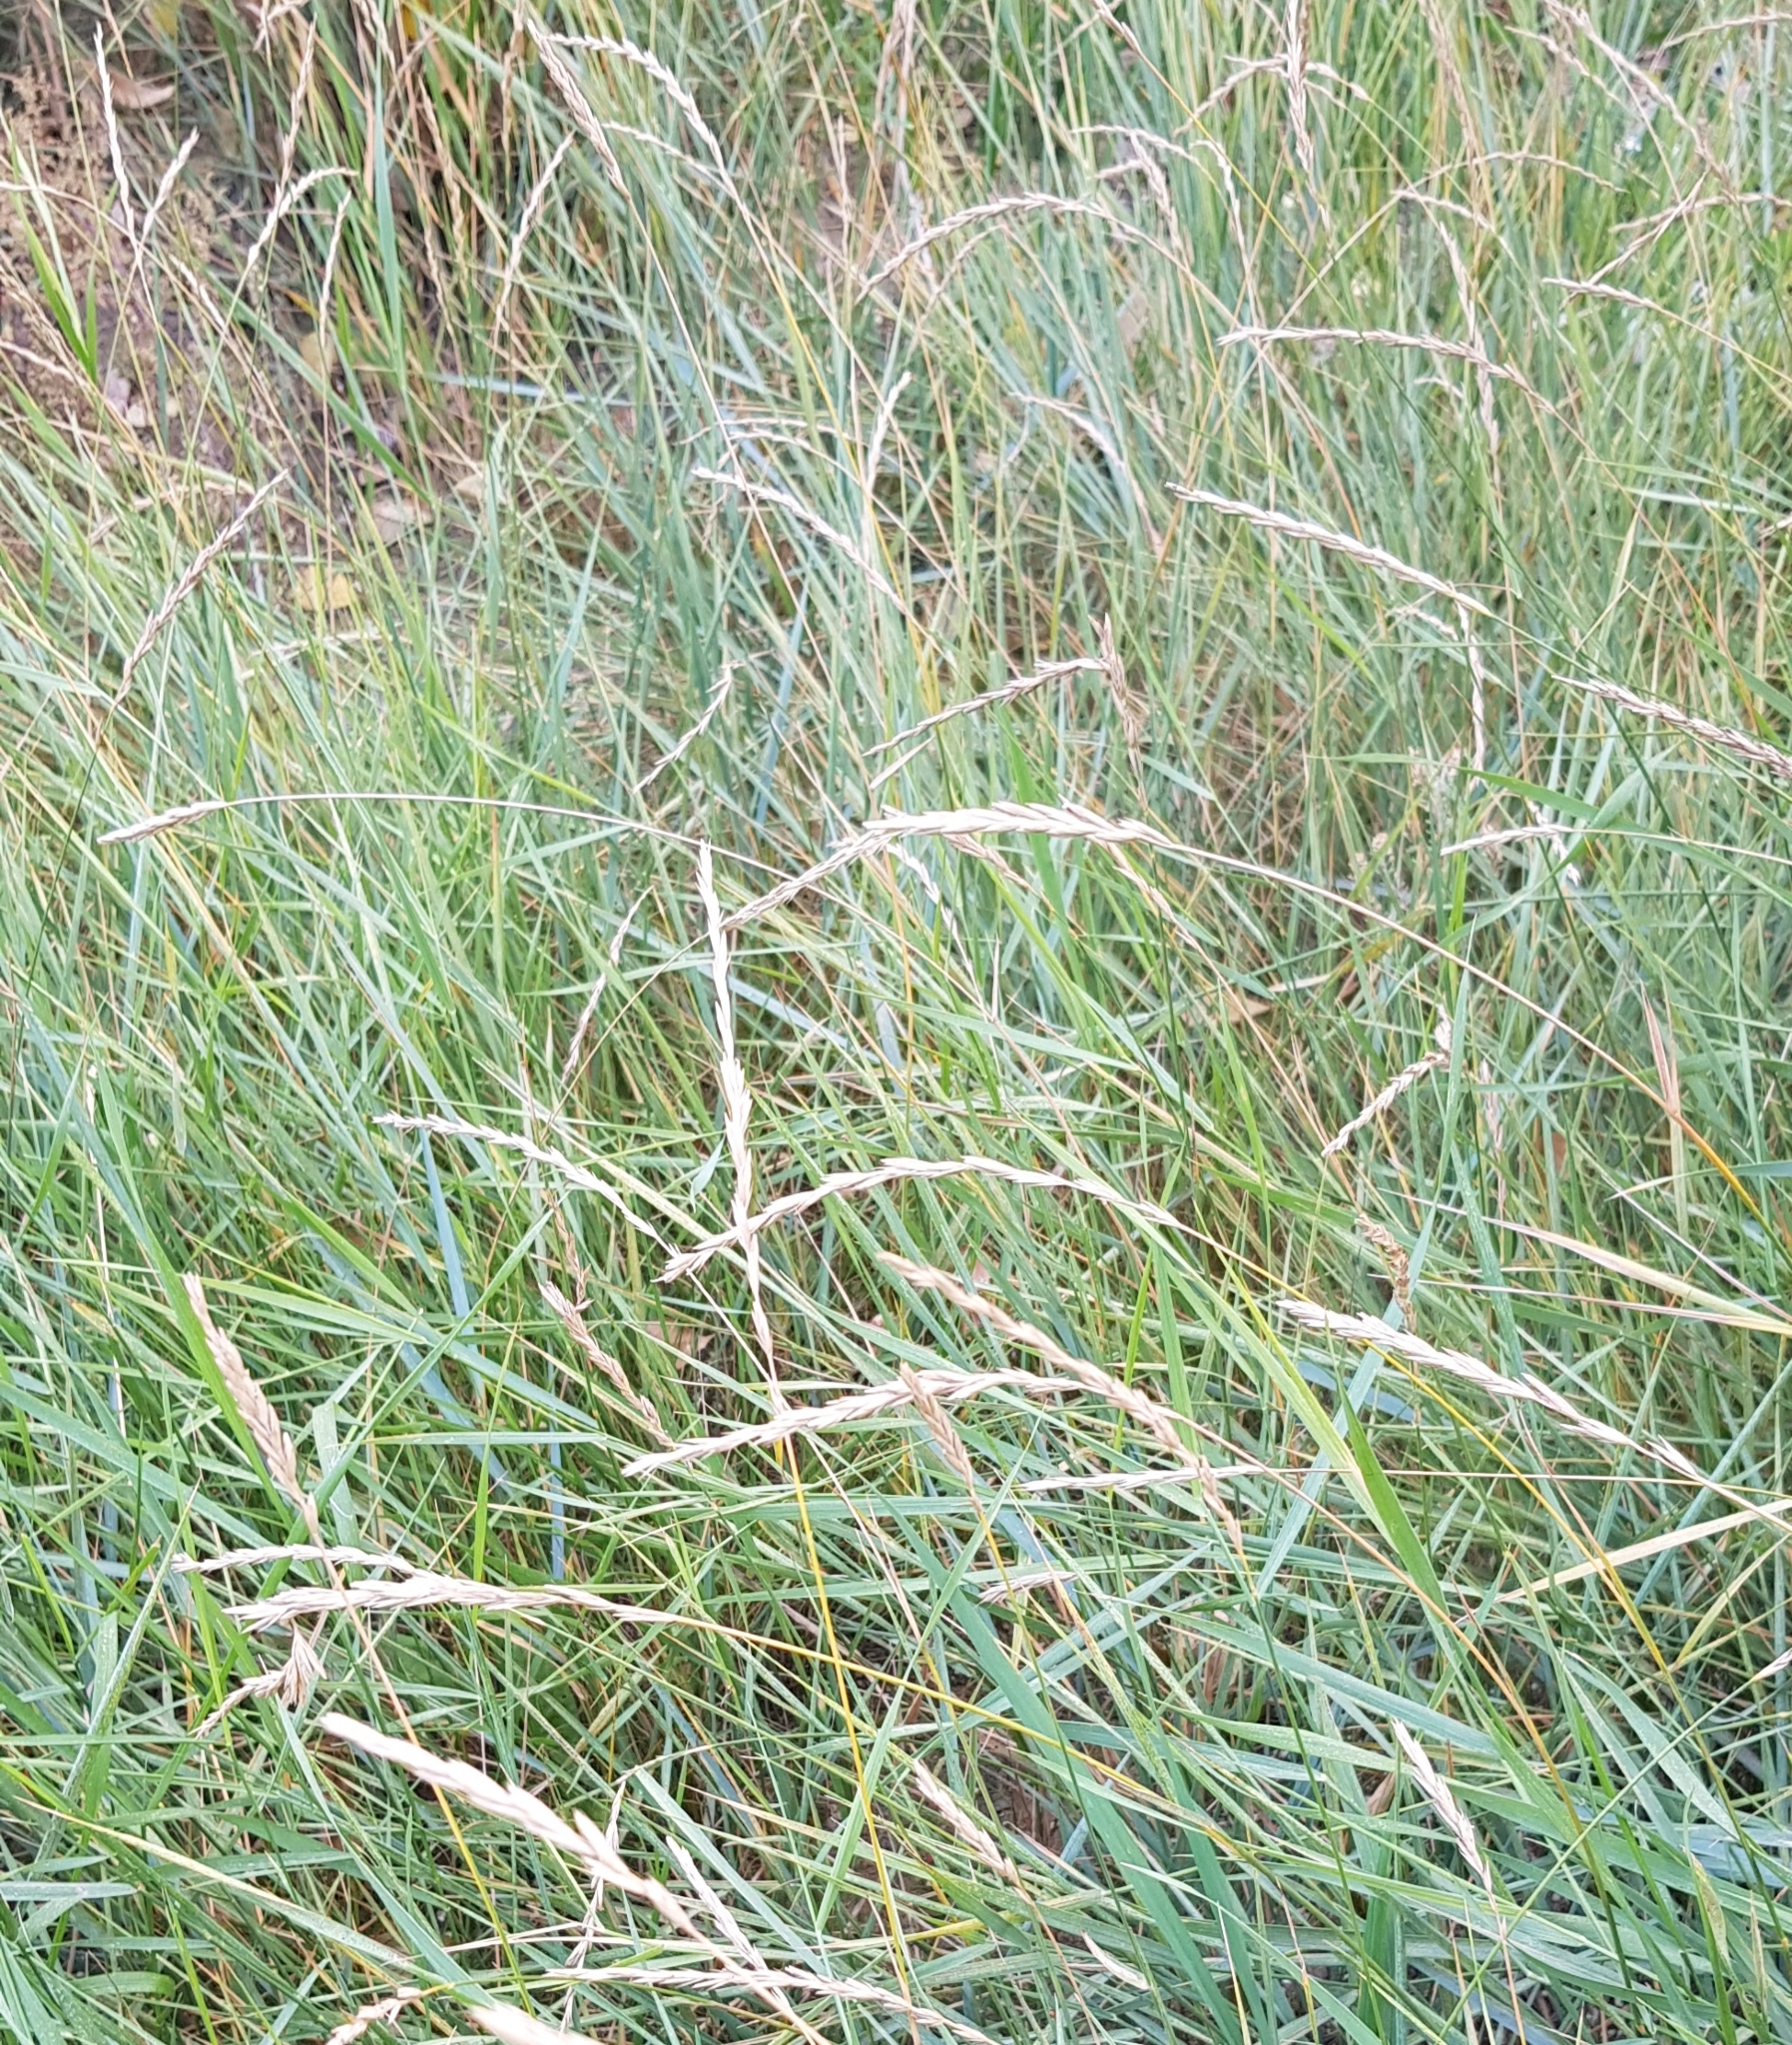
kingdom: Plantae
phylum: Tracheophyta
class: Liliopsida
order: Poales
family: Poaceae
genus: Elymus
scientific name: Elymus repens
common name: Quackgrass
